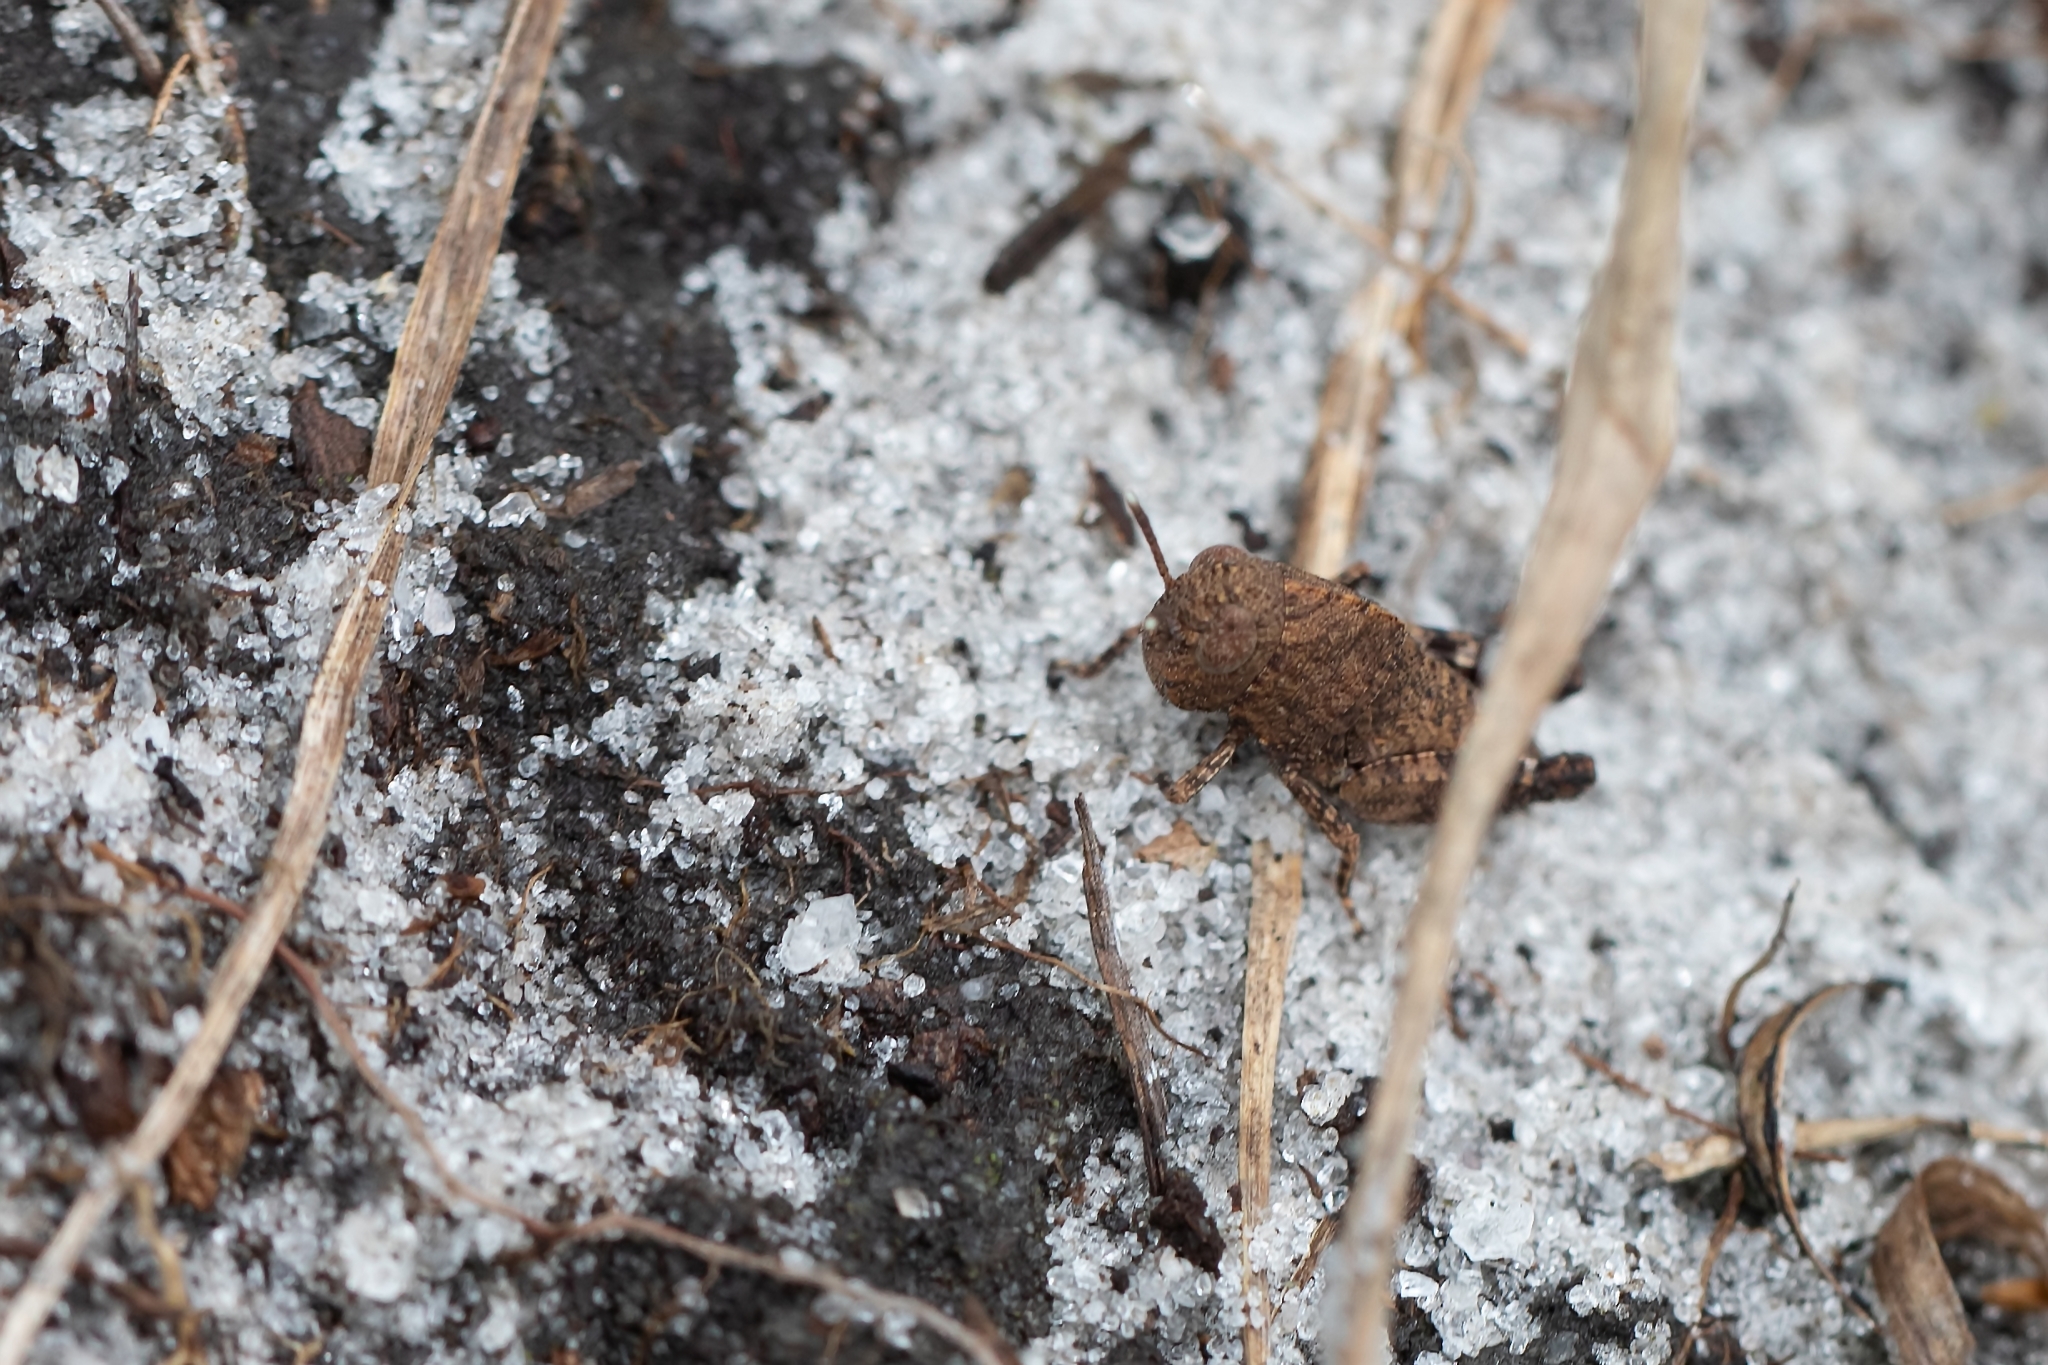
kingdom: Animalia
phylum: Arthropoda
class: Insecta
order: Orthoptera
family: Acrididae
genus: Arphia
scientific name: Arphia granulata
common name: Southern yellow-winged grasshopper
